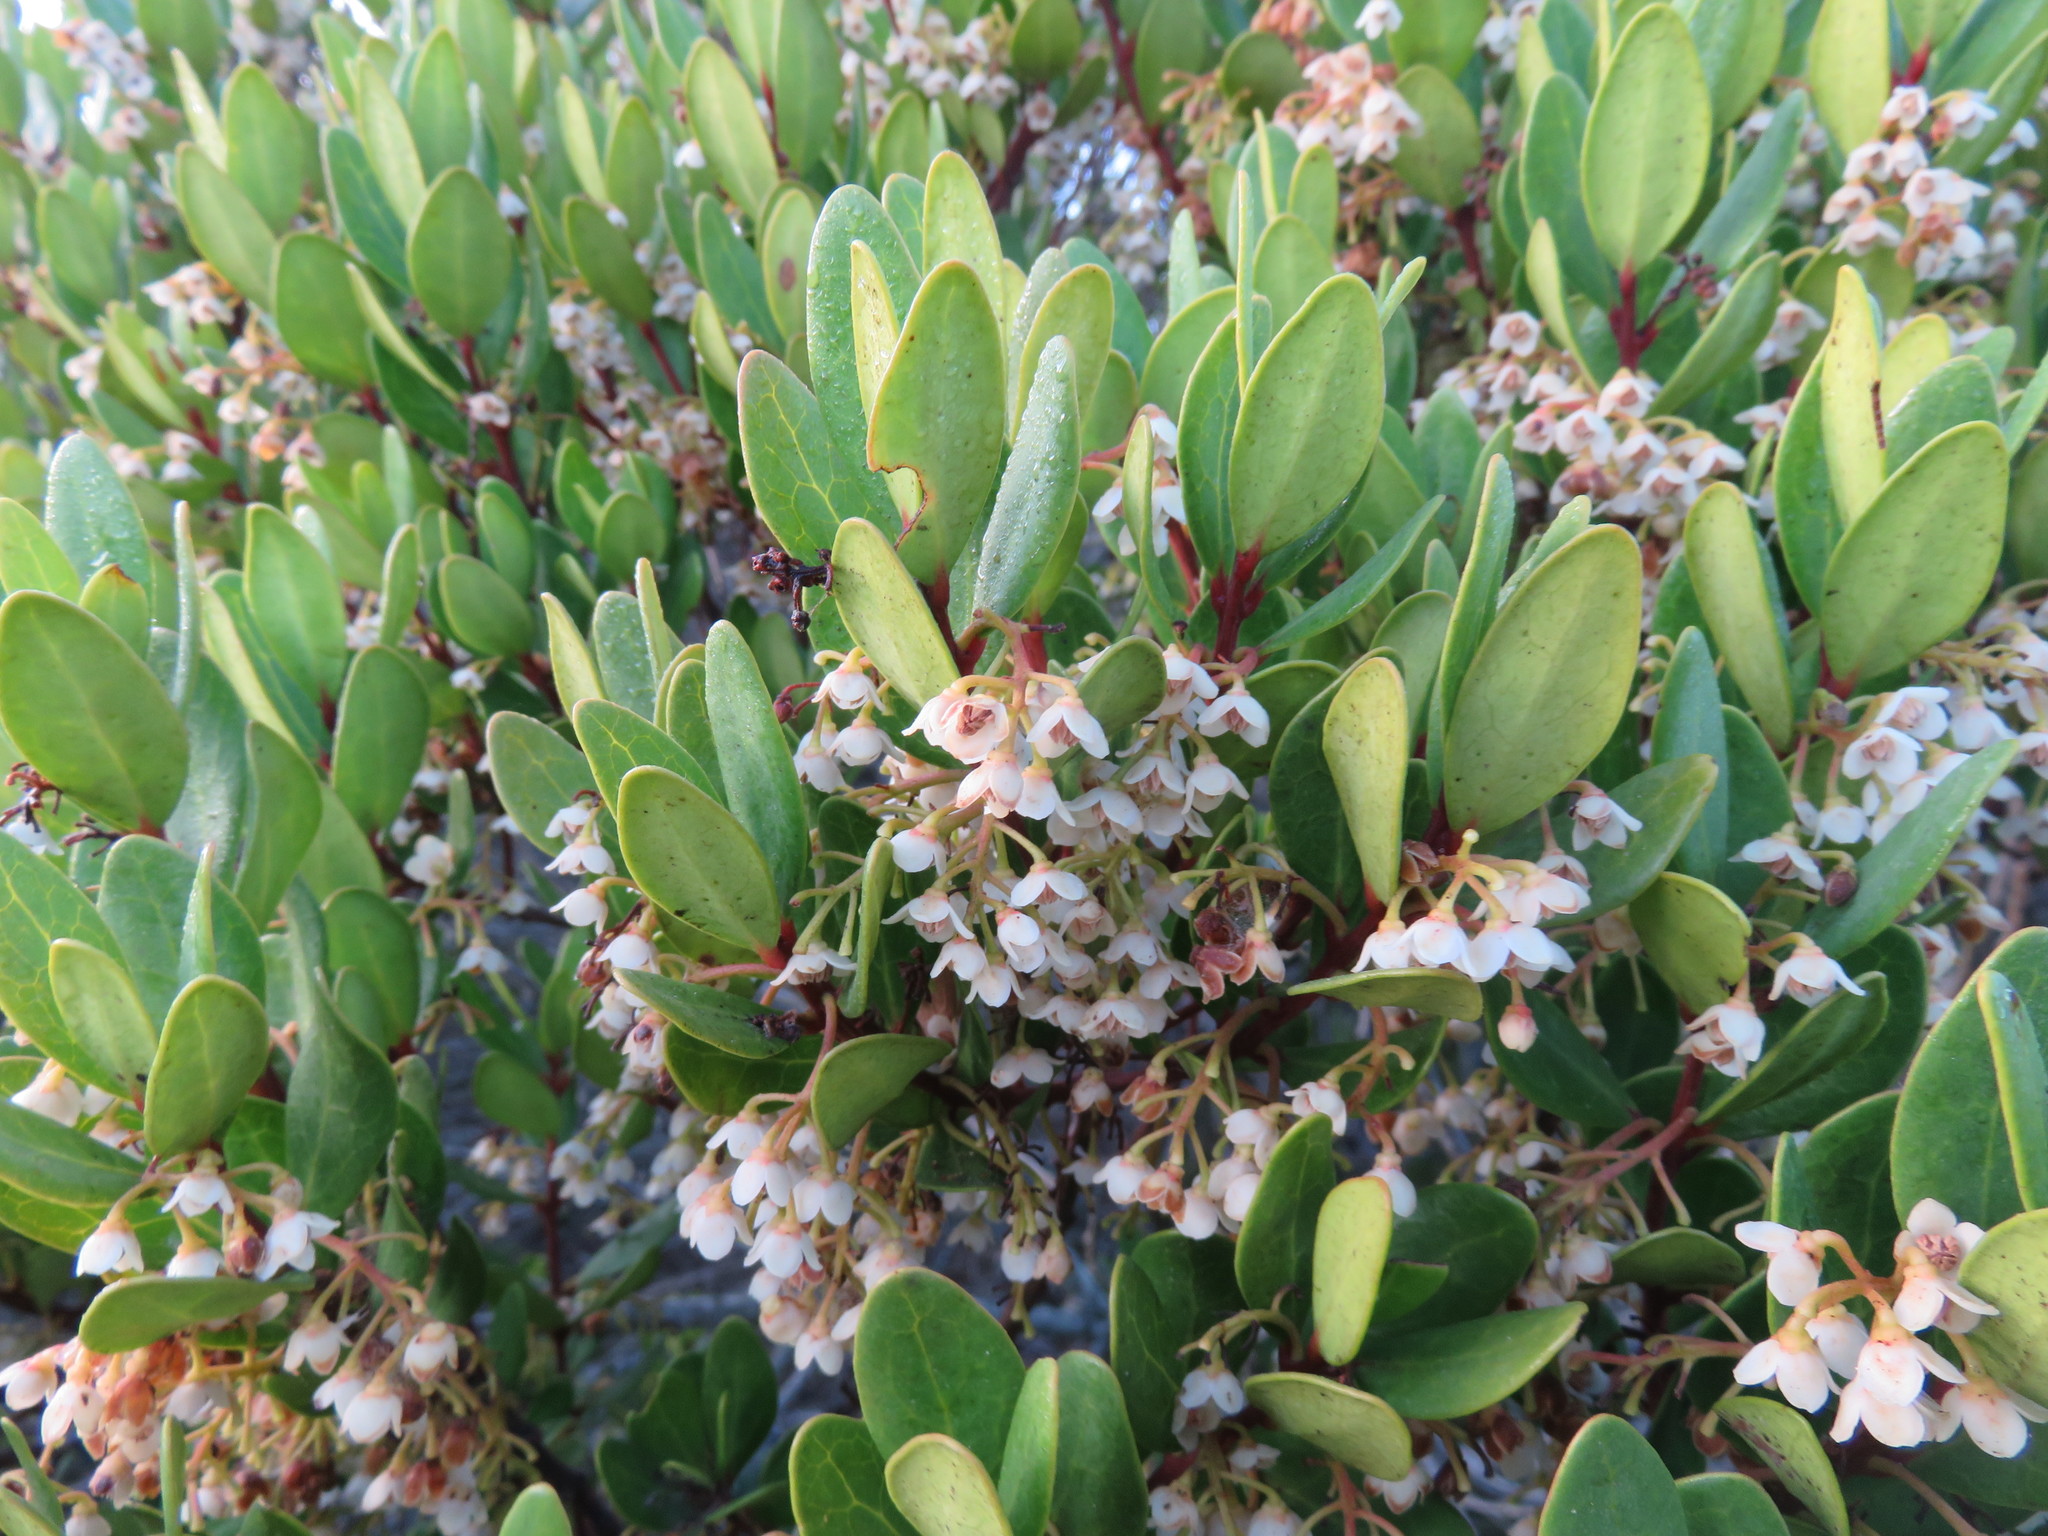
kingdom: Plantae
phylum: Tracheophyta
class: Magnoliopsida
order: Ericales
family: Ebenaceae
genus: Euclea
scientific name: Euclea racemosa
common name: Dune guarri
